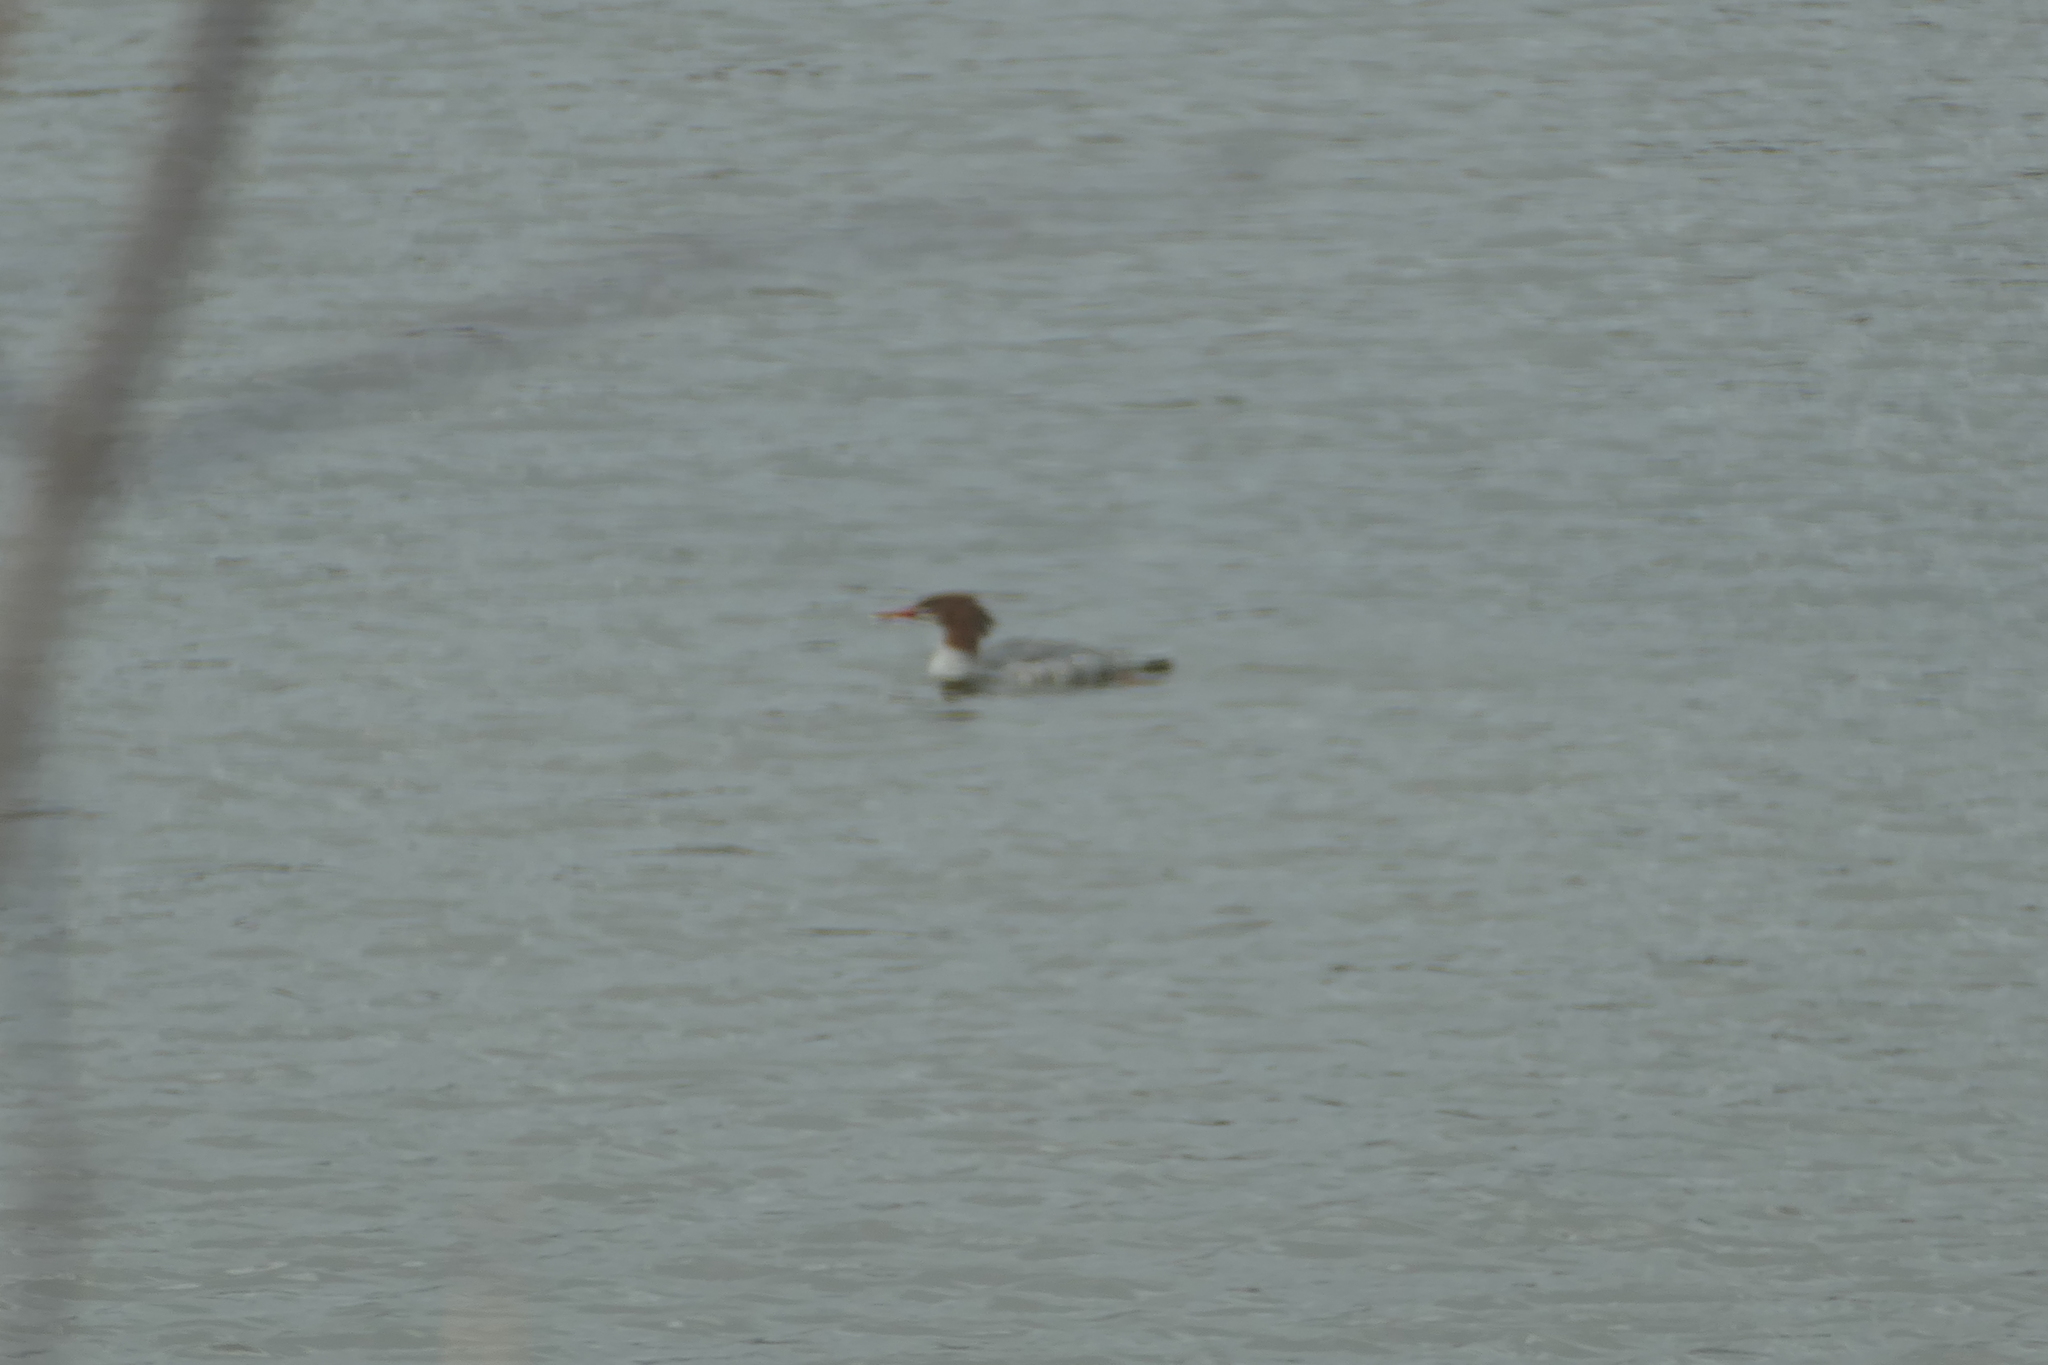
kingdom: Animalia
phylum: Chordata
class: Aves
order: Anseriformes
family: Anatidae
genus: Mergus
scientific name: Mergus merganser
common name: Common merganser
